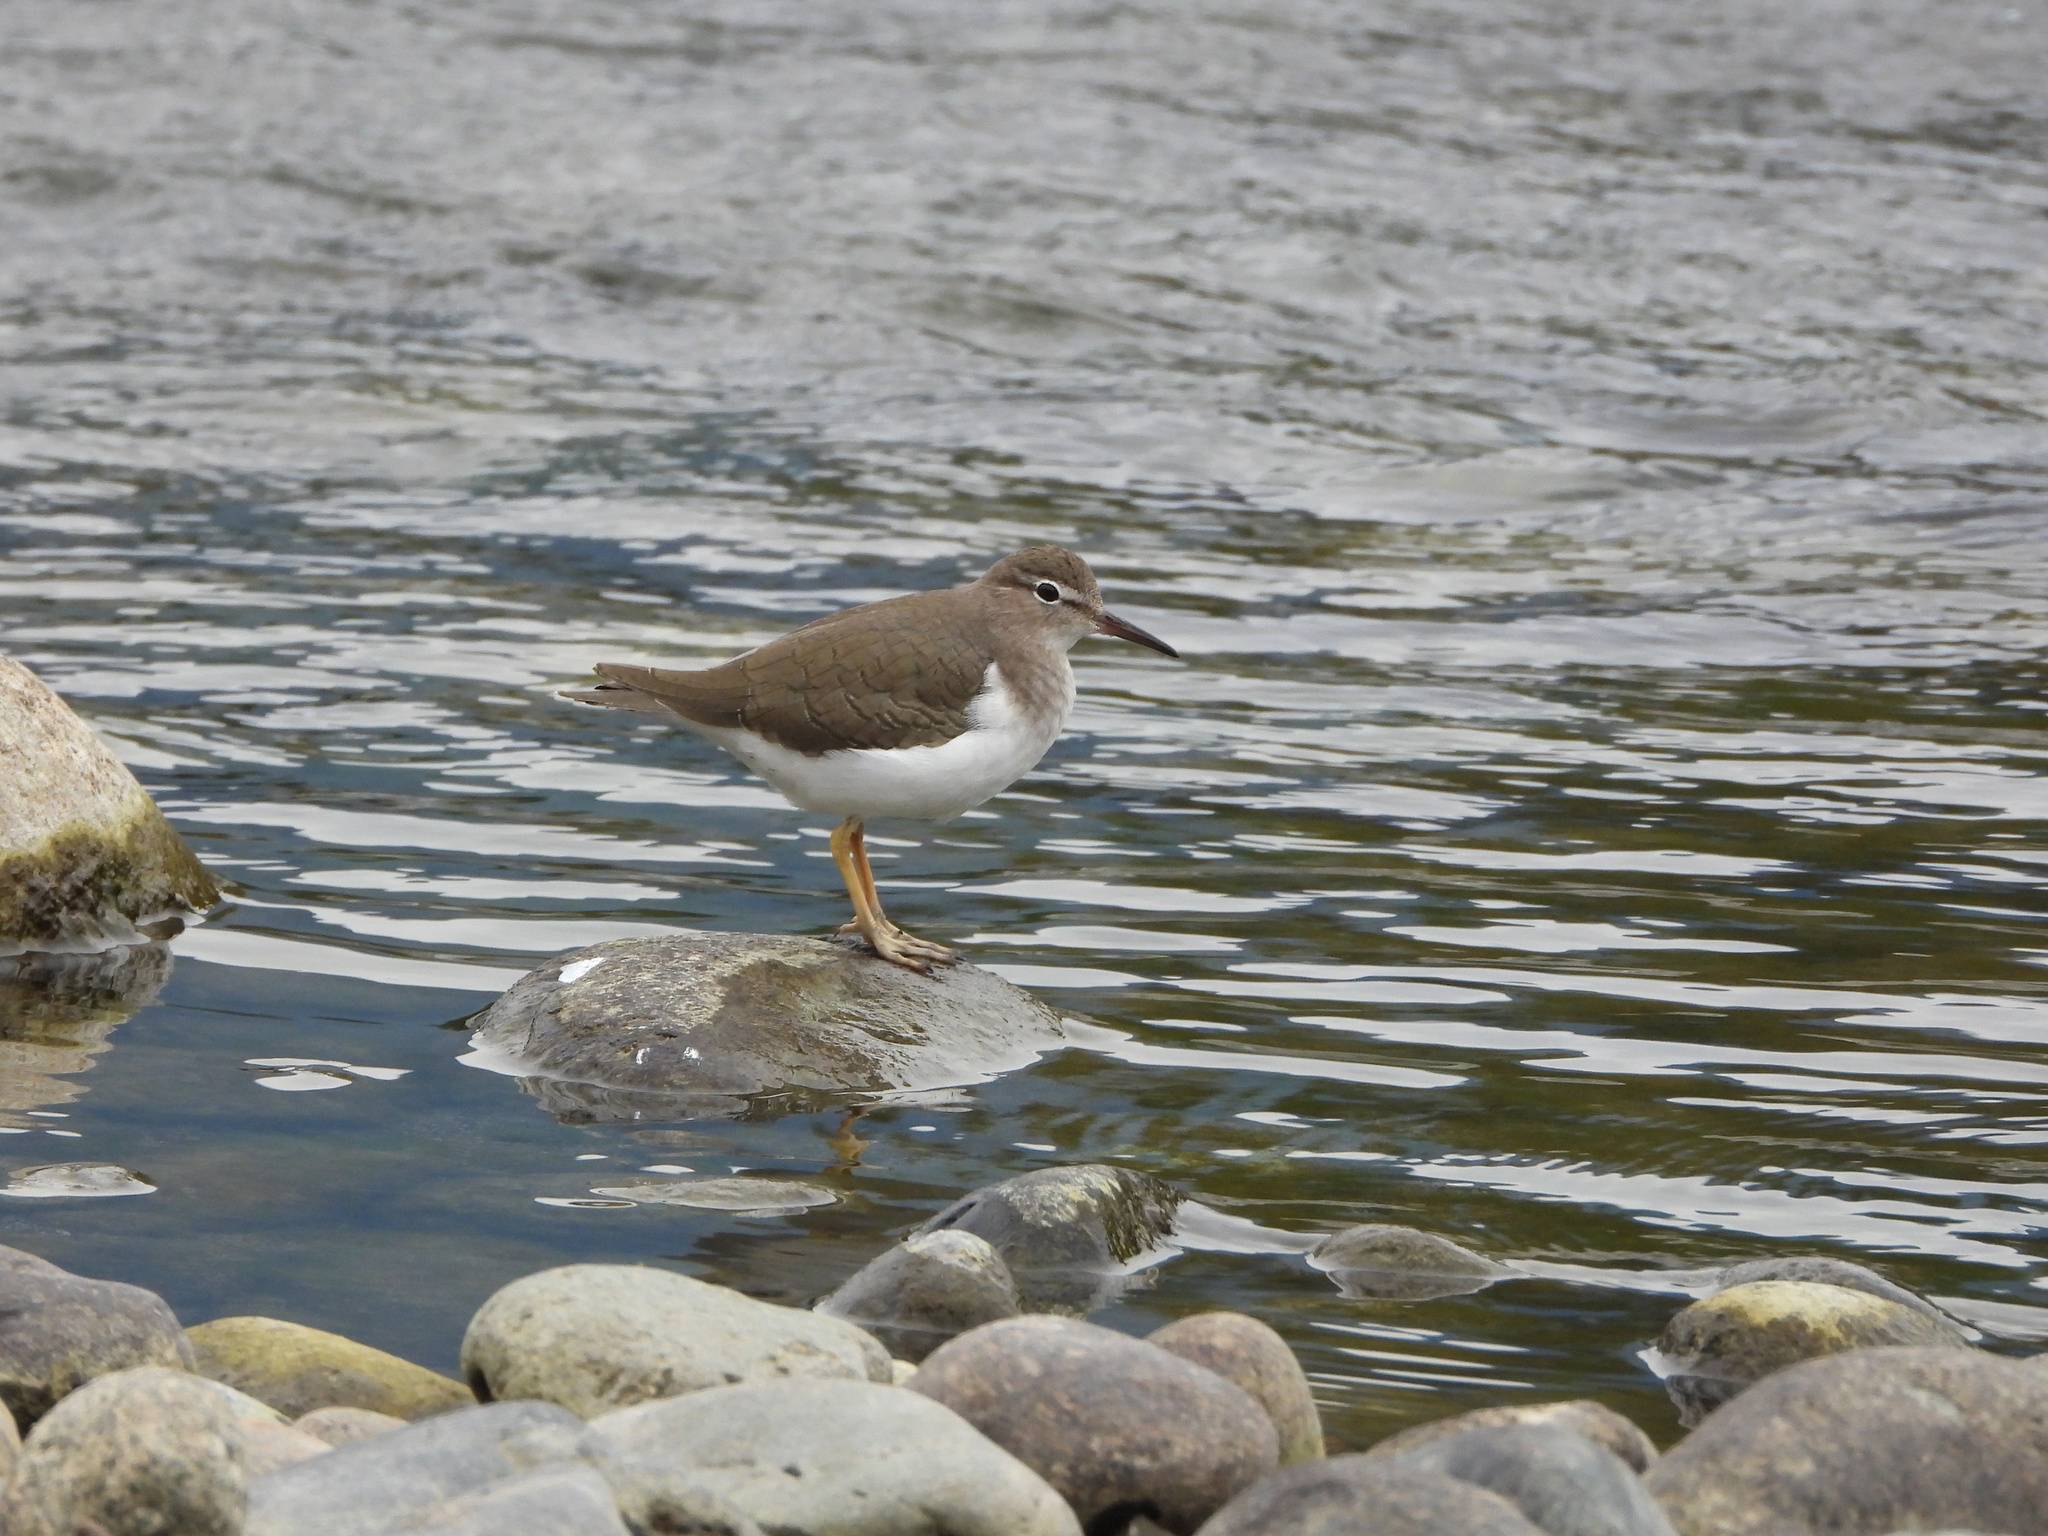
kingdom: Animalia
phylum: Chordata
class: Aves
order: Charadriiformes
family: Scolopacidae
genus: Actitis
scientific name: Actitis macularius
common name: Spotted sandpiper
